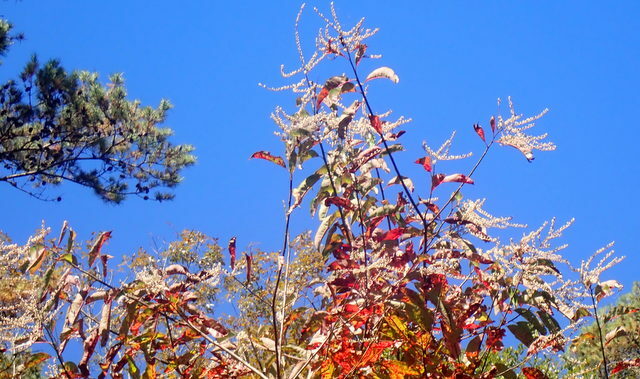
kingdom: Plantae
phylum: Tracheophyta
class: Magnoliopsida
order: Ericales
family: Ericaceae
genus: Oxydendrum
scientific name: Oxydendrum arboreum
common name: Sourwood
